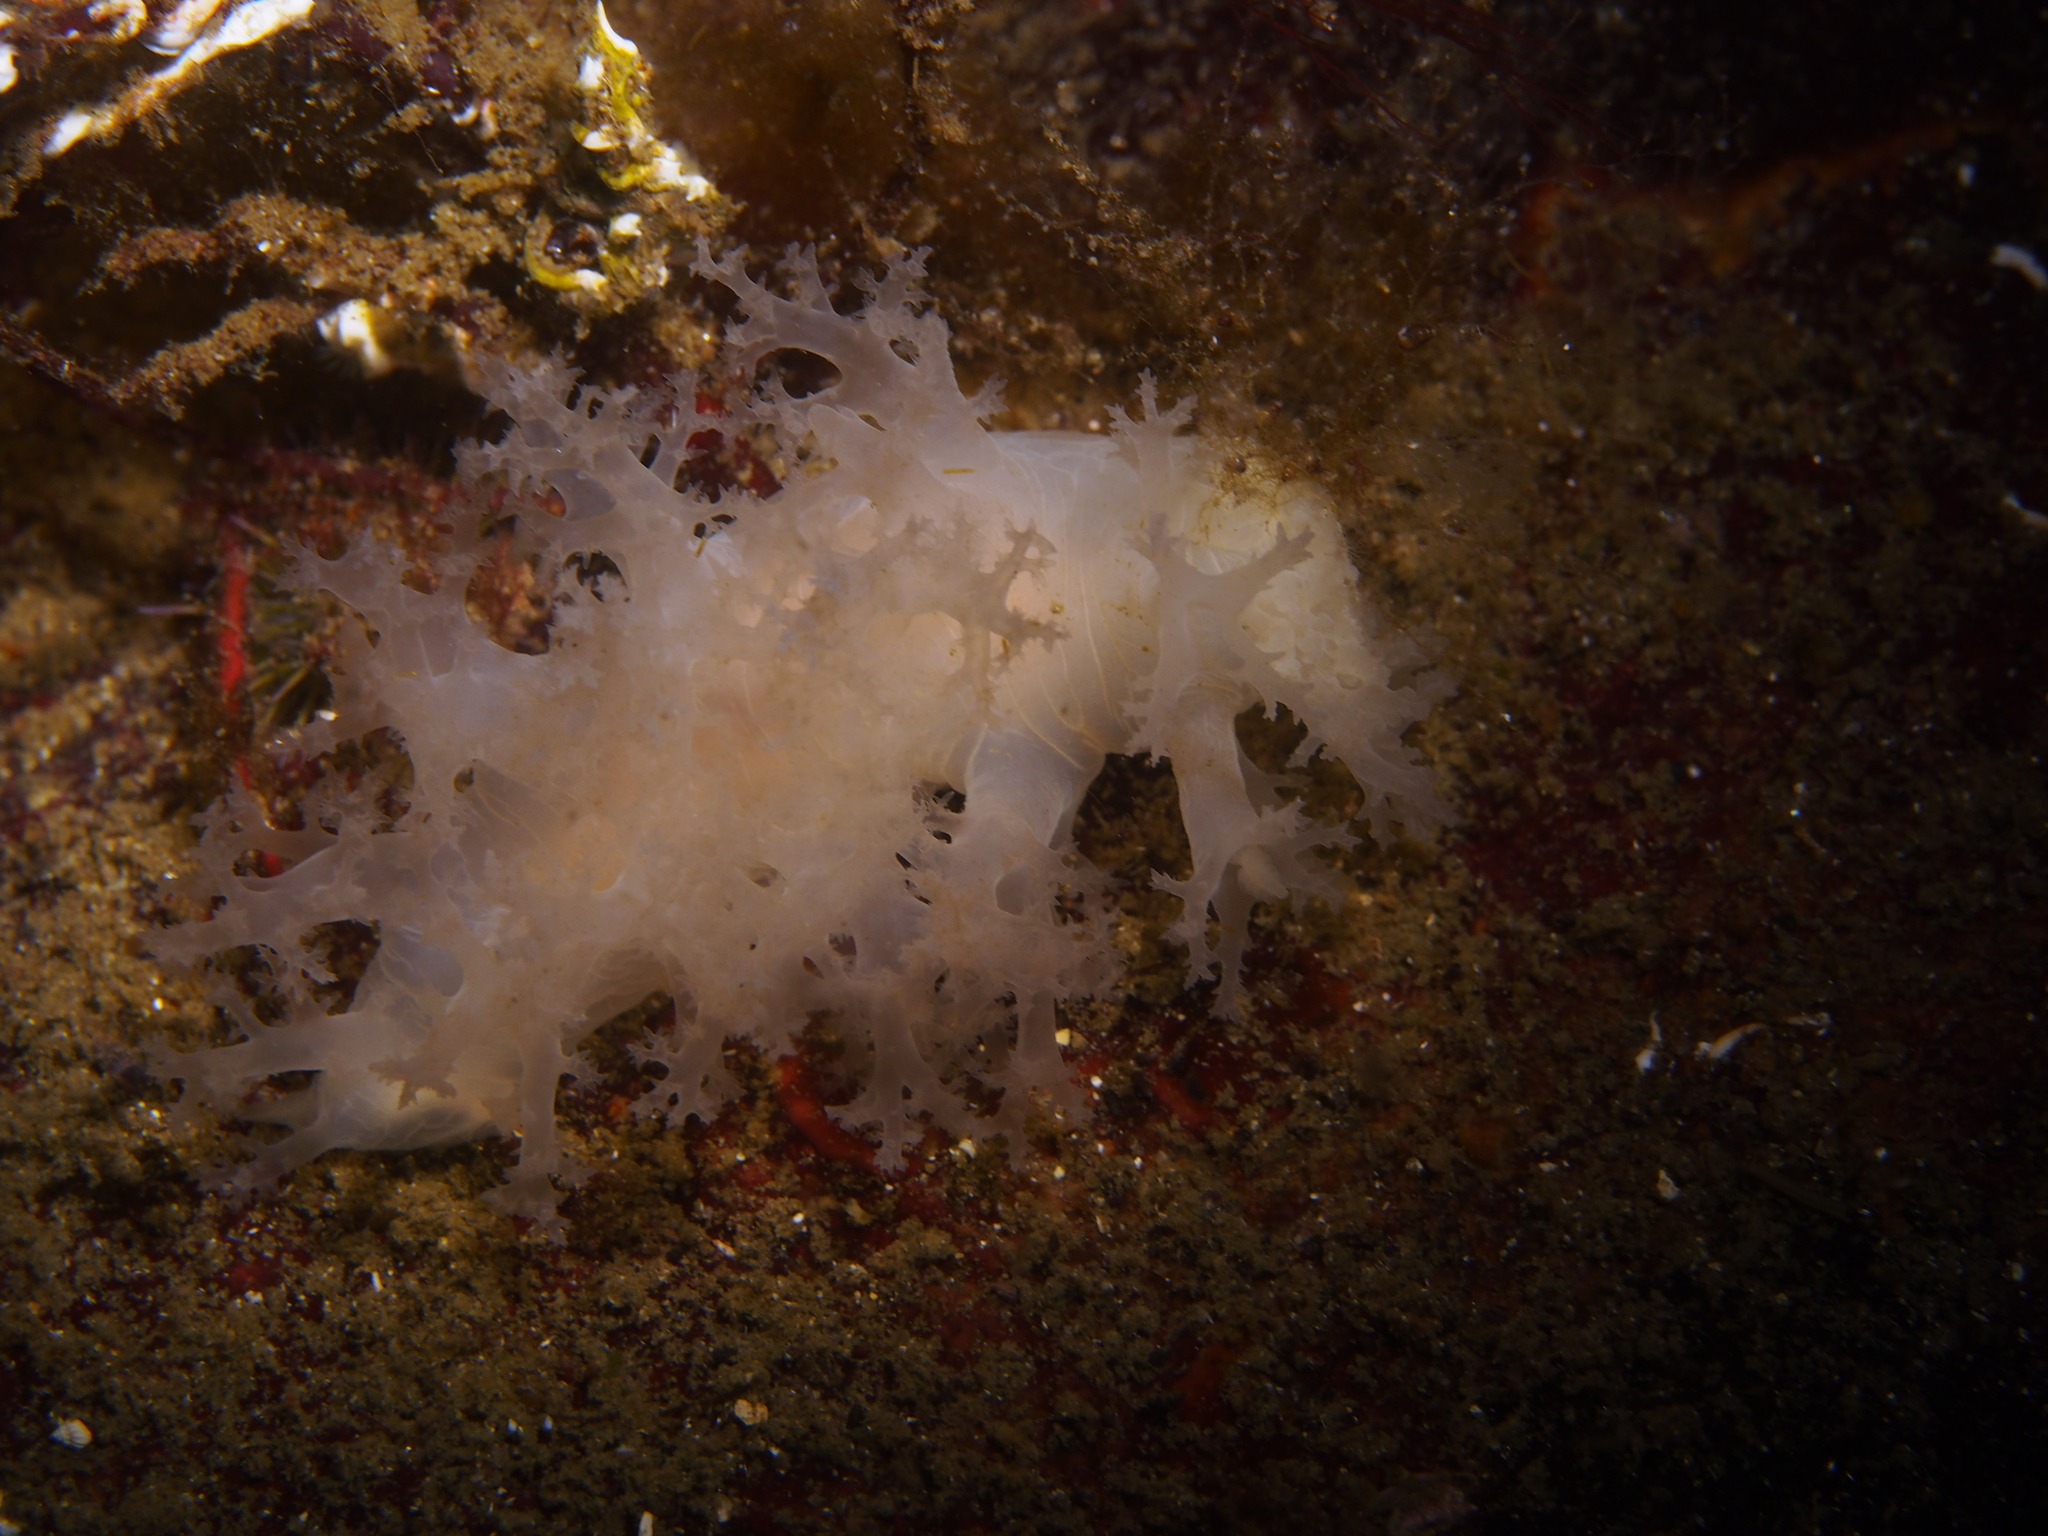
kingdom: Animalia
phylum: Mollusca
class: Gastropoda
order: Nudibranchia
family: Dendronotidae
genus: Dendronotus
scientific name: Dendronotus lacteus
